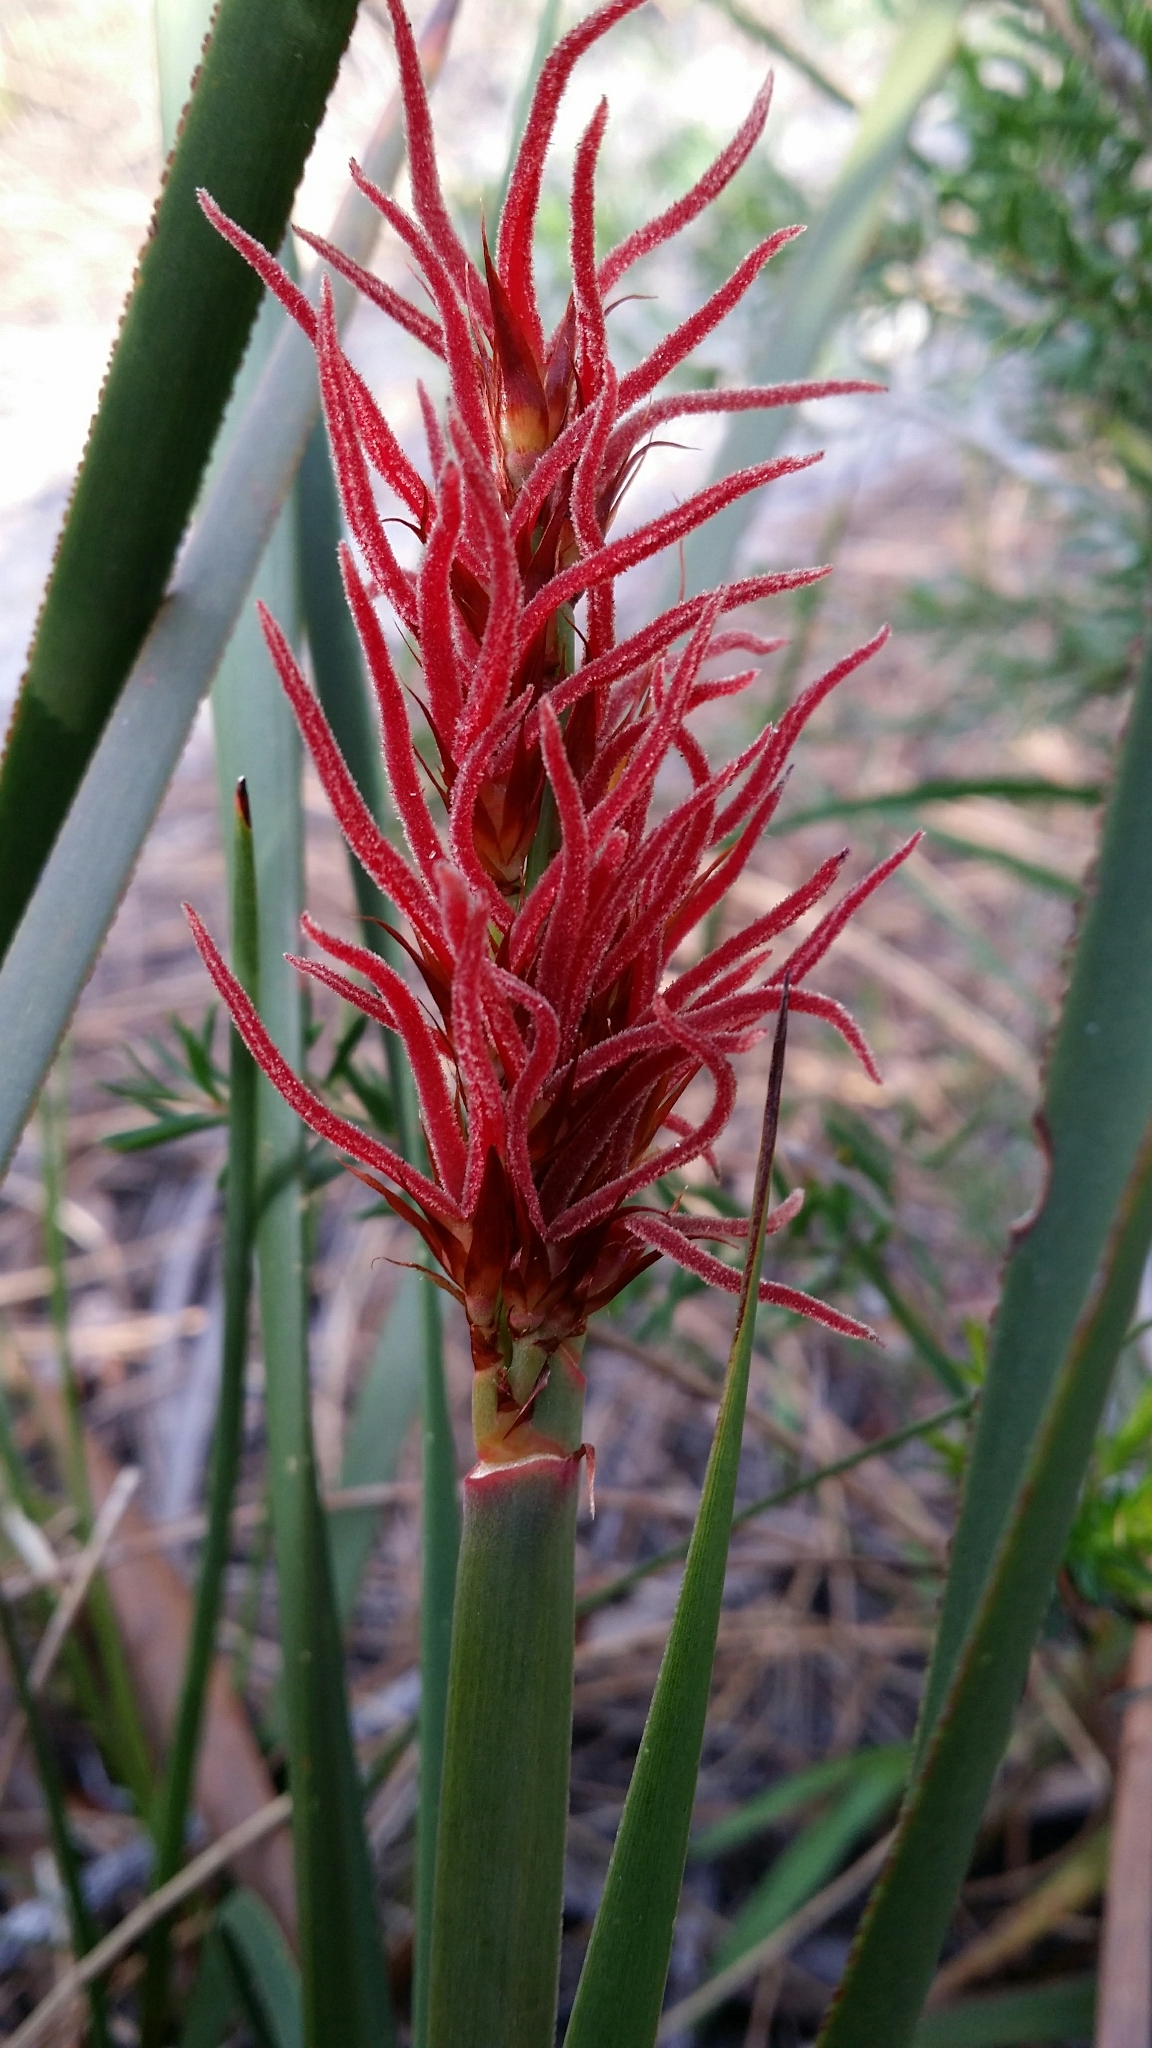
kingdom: Plantae
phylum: Tracheophyta
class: Liliopsida
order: Poales
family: Restionaceae
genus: Anarthria
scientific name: Anarthria scabra
